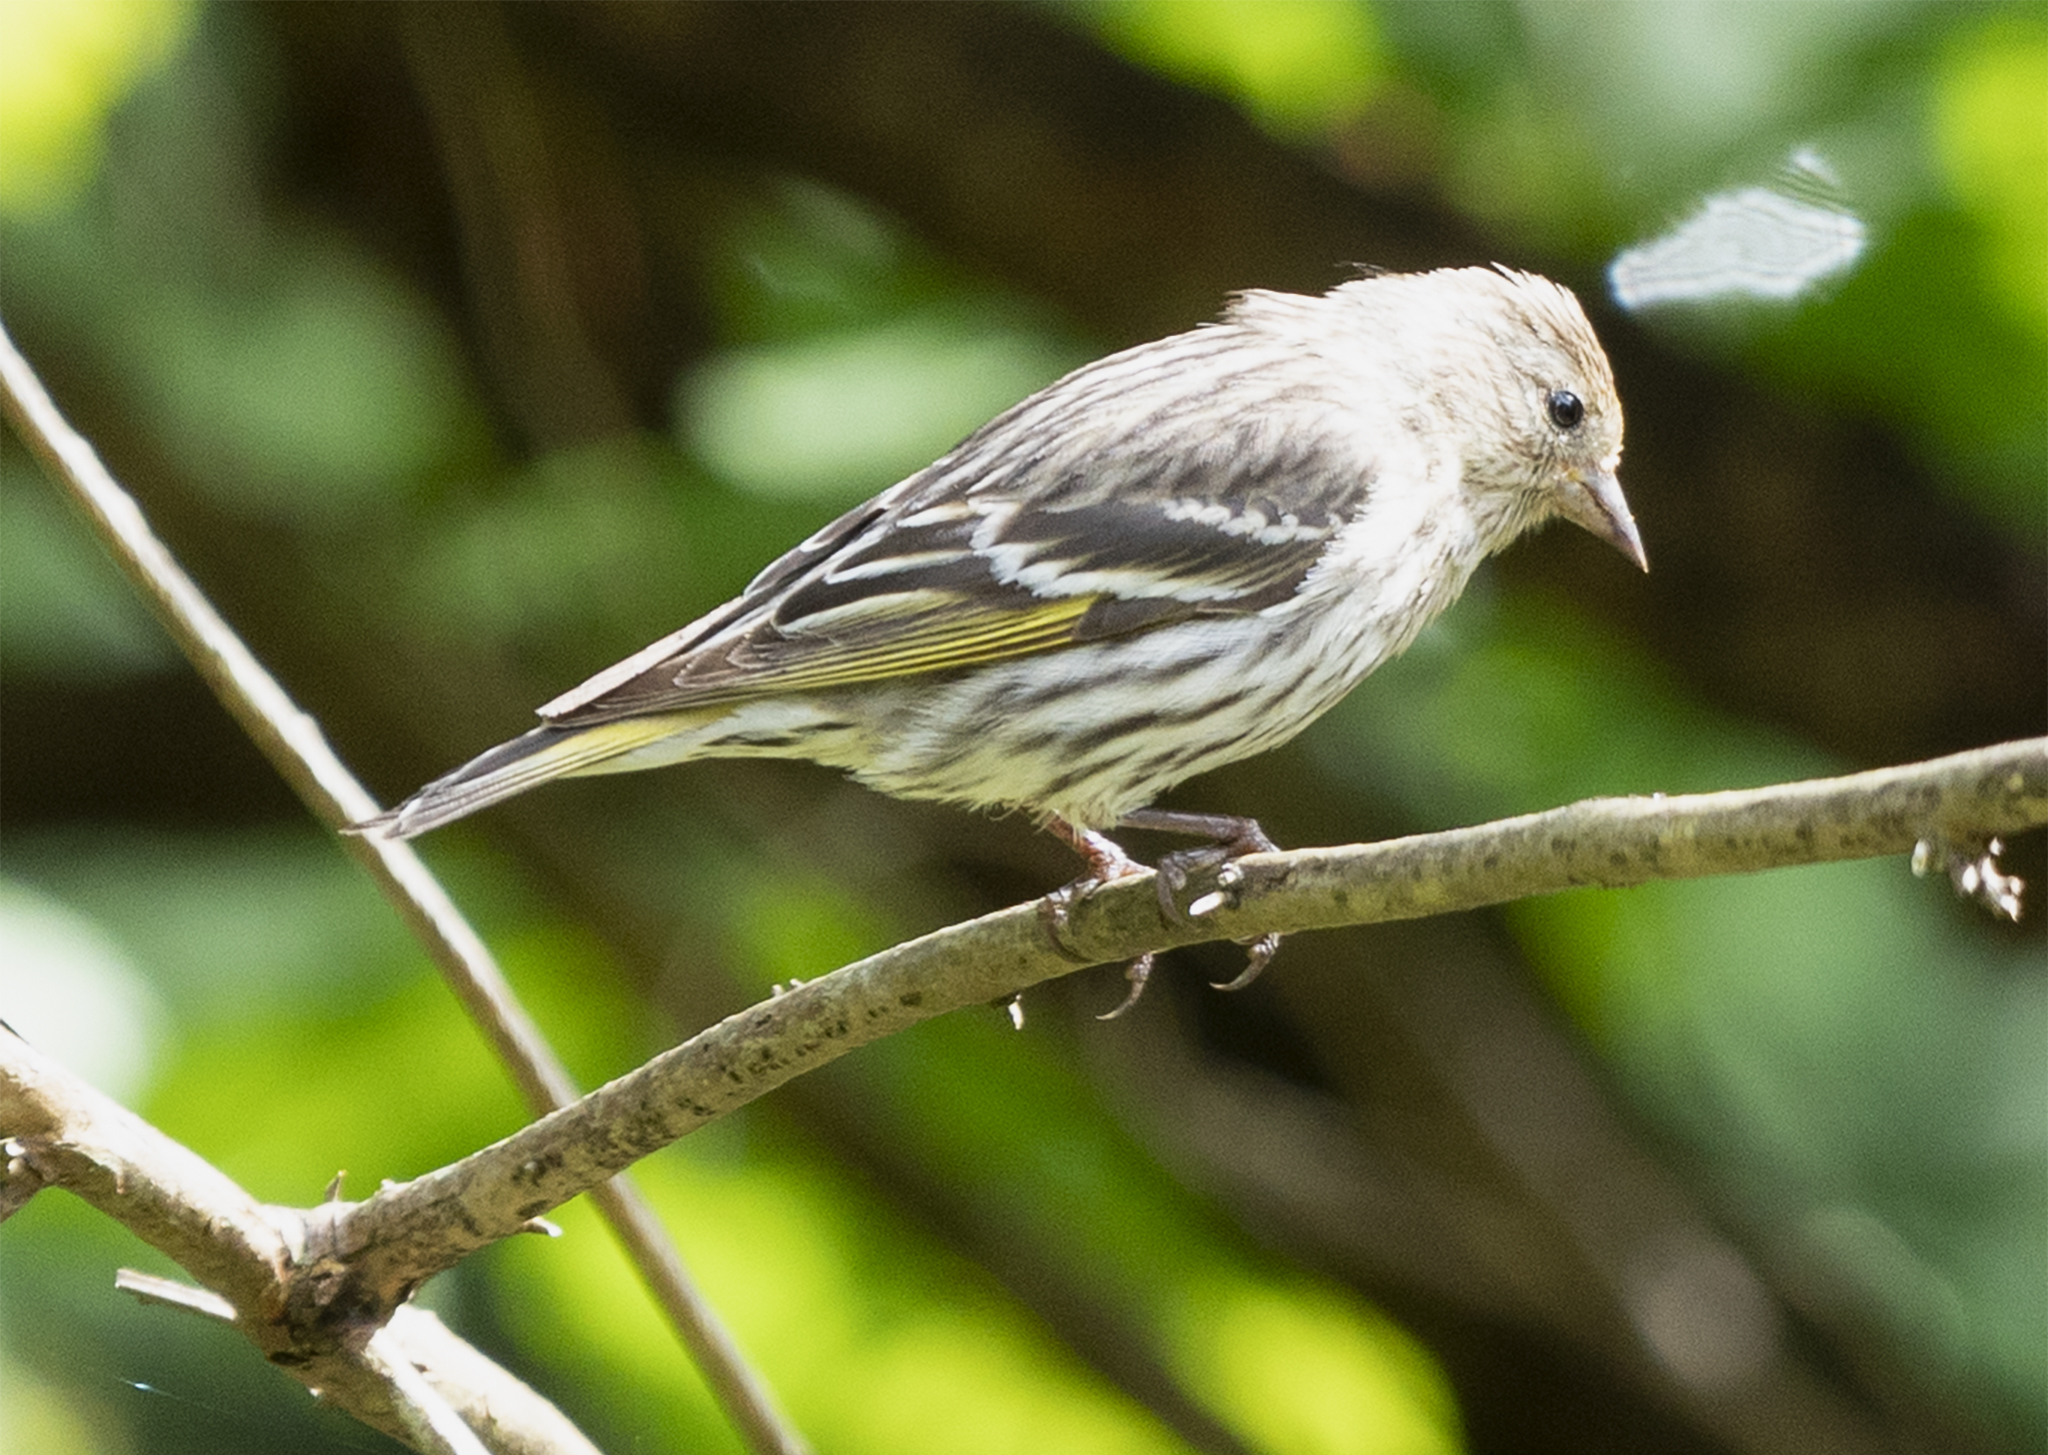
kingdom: Animalia
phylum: Chordata
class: Aves
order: Passeriformes
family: Fringillidae
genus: Spinus
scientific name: Spinus pinus
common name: Pine siskin
